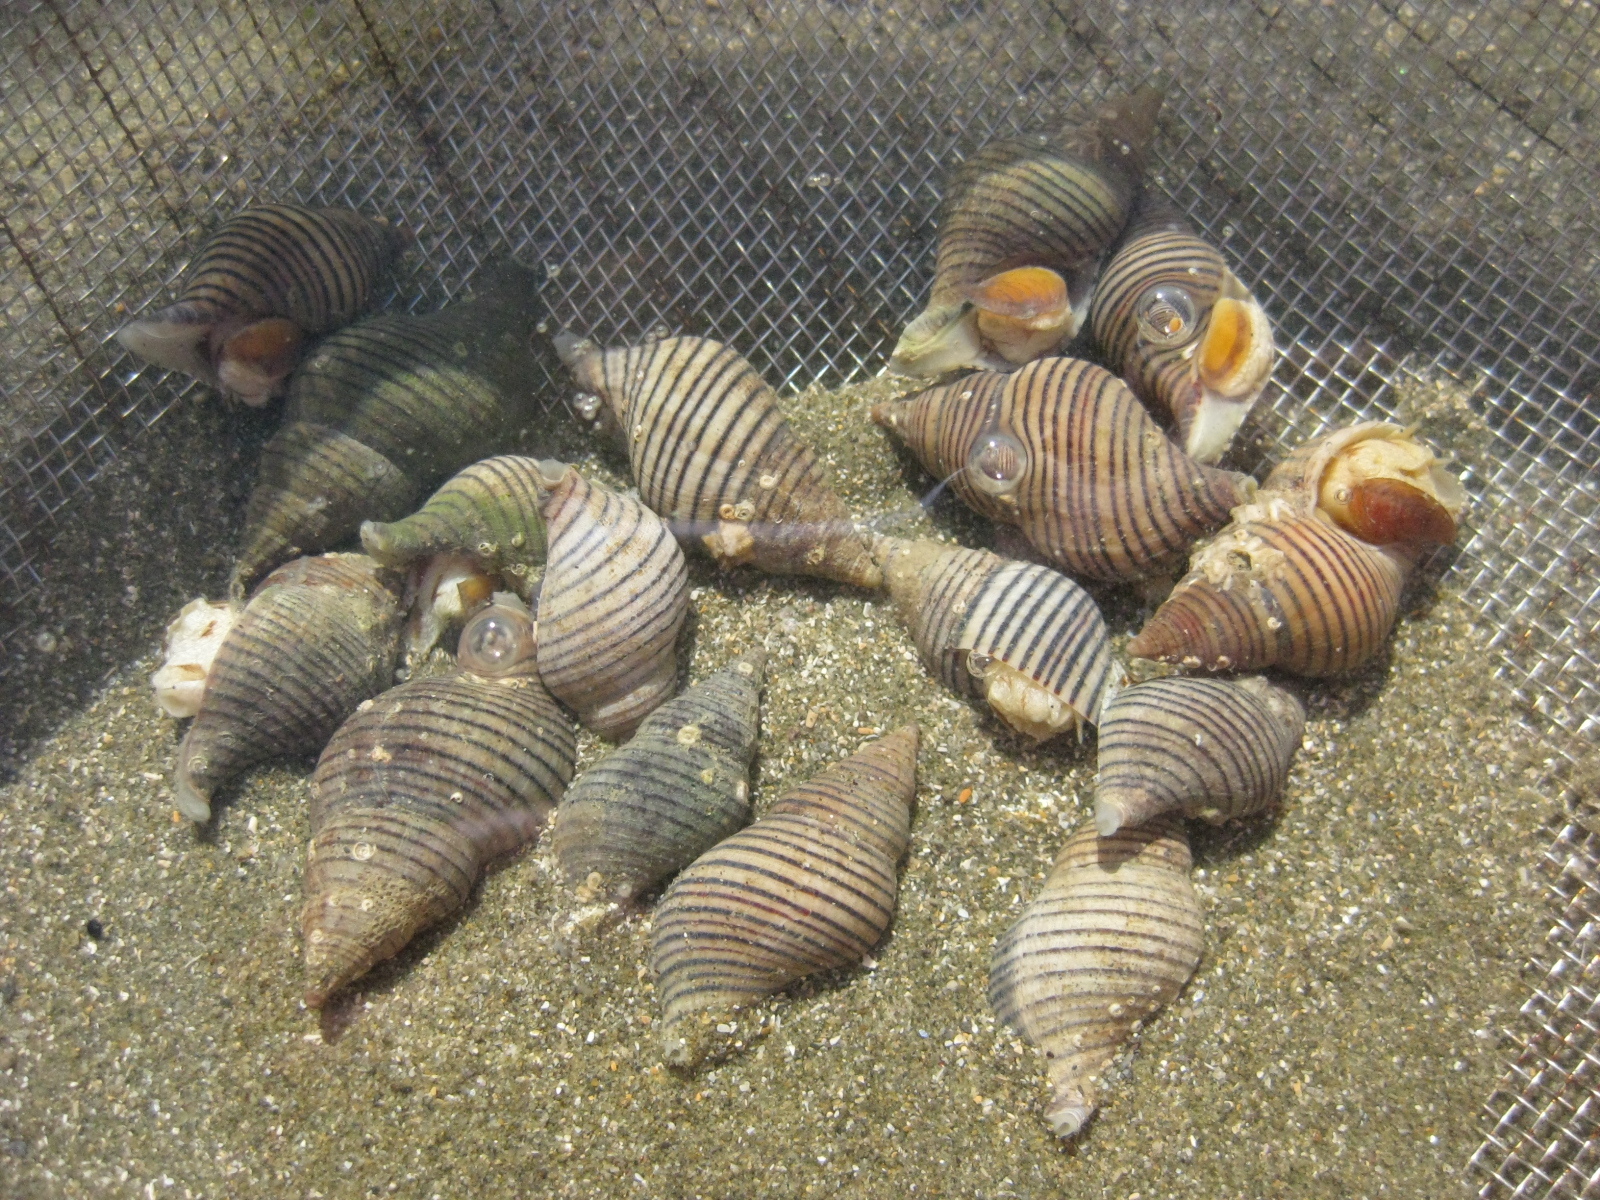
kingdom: Animalia
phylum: Mollusca
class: Gastropoda
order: Neogastropoda
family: Tudiclidae
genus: Buccinulum
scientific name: Buccinulum linea
